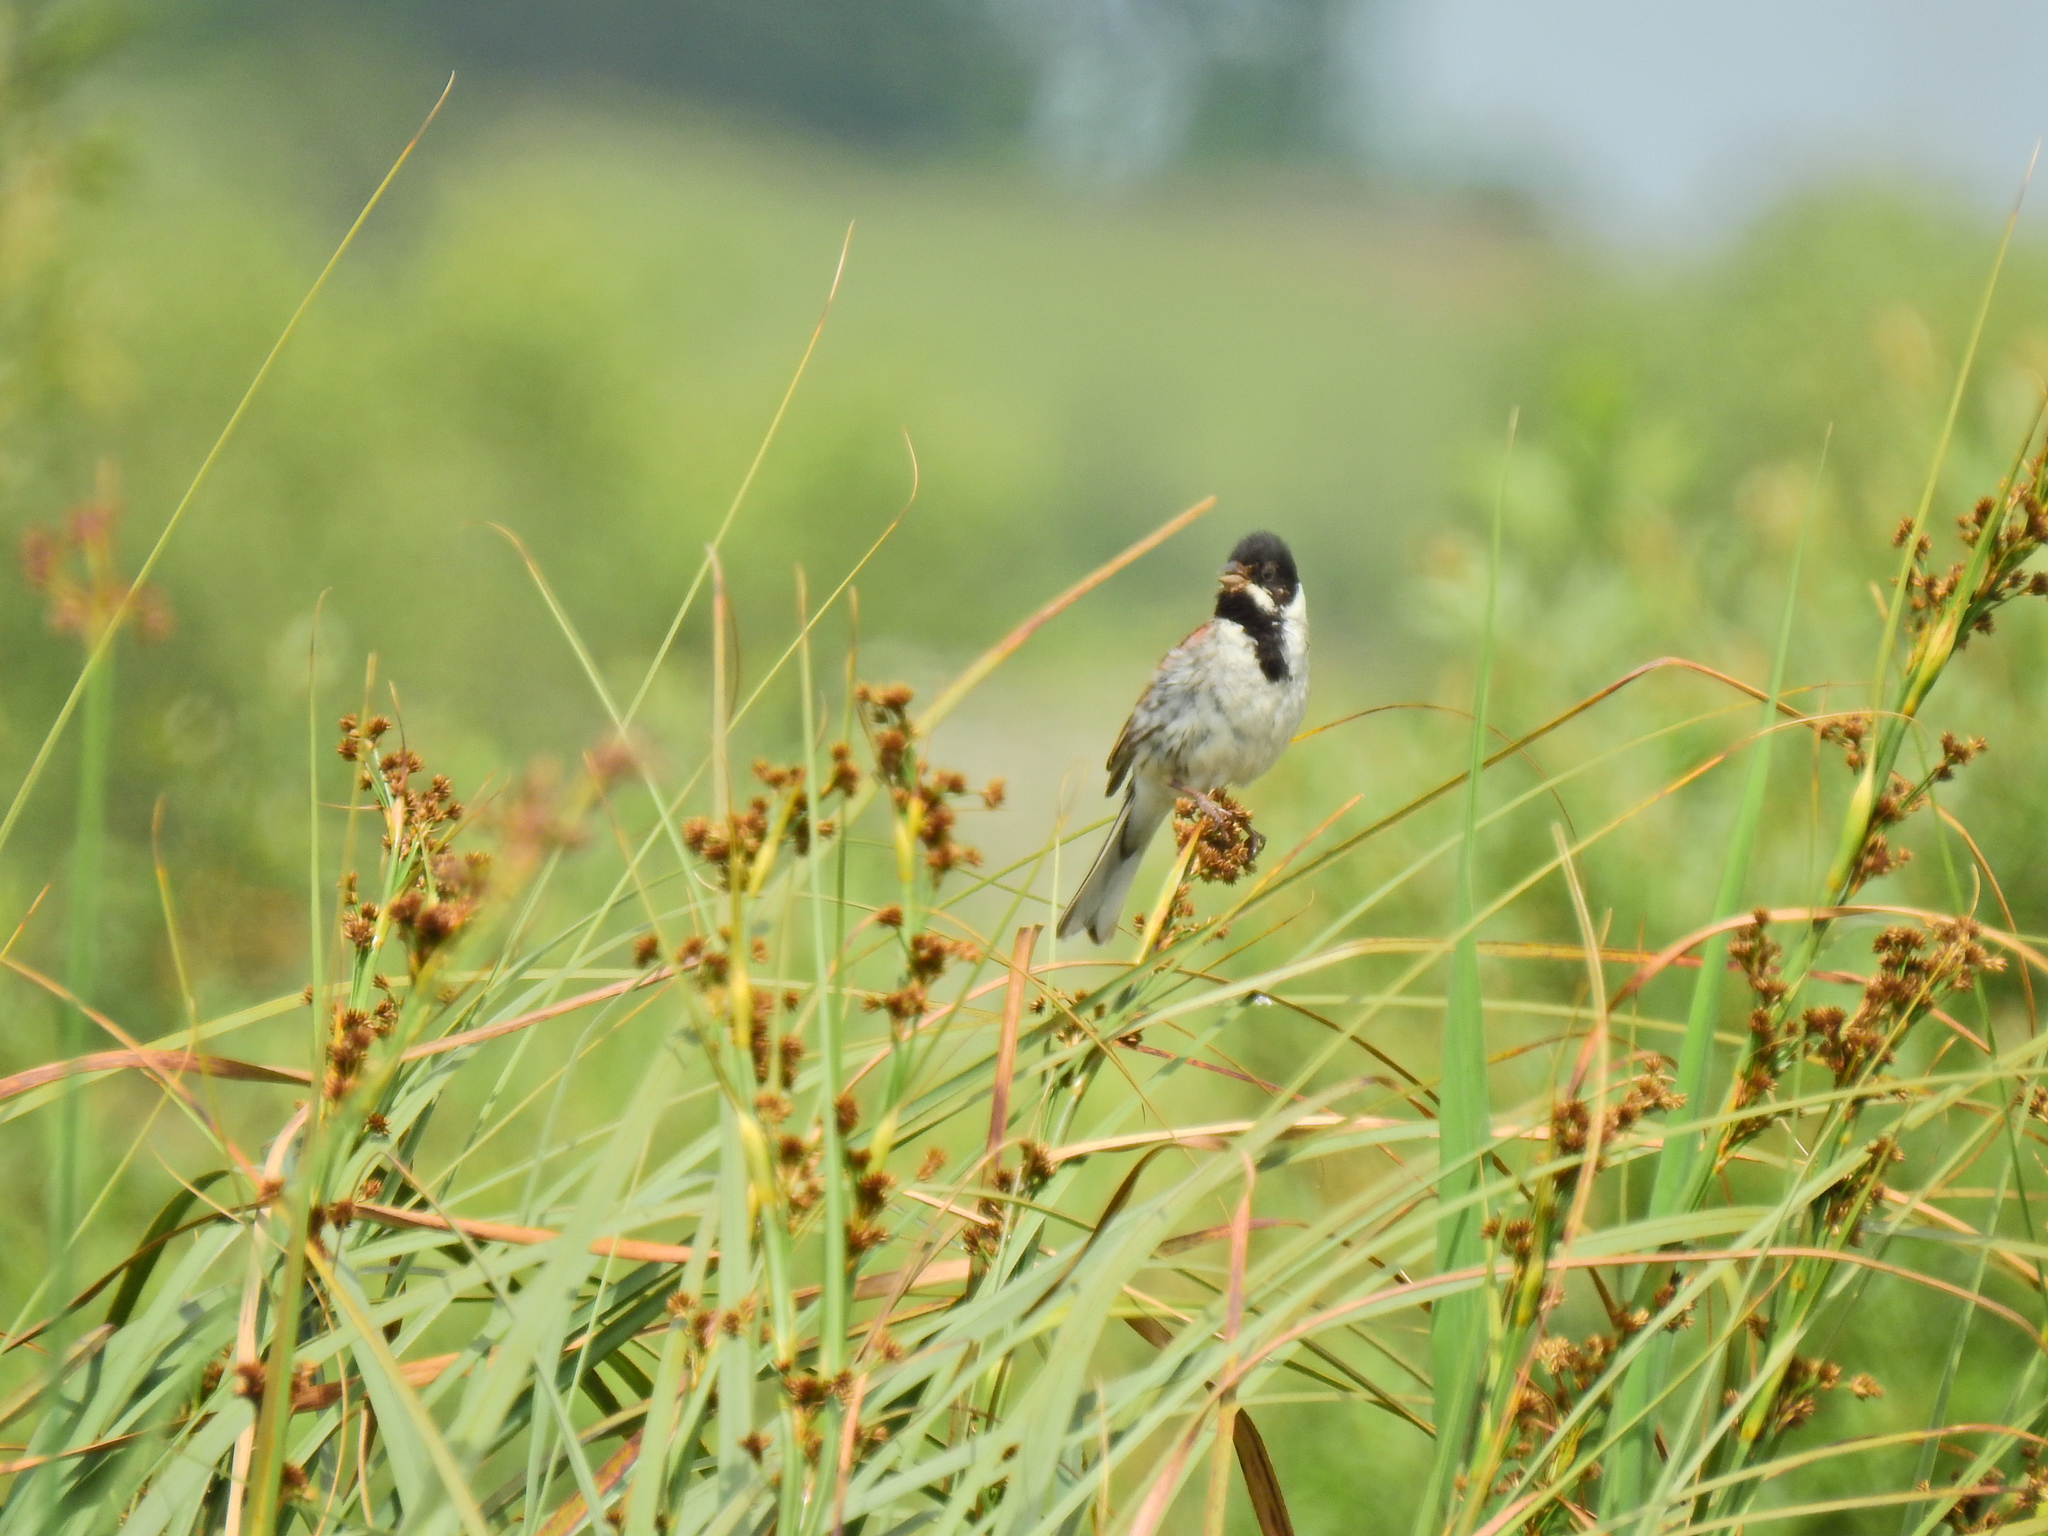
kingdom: Animalia
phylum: Chordata
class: Aves
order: Passeriformes
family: Emberizidae
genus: Emberiza
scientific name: Emberiza schoeniclus
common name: Reed bunting
